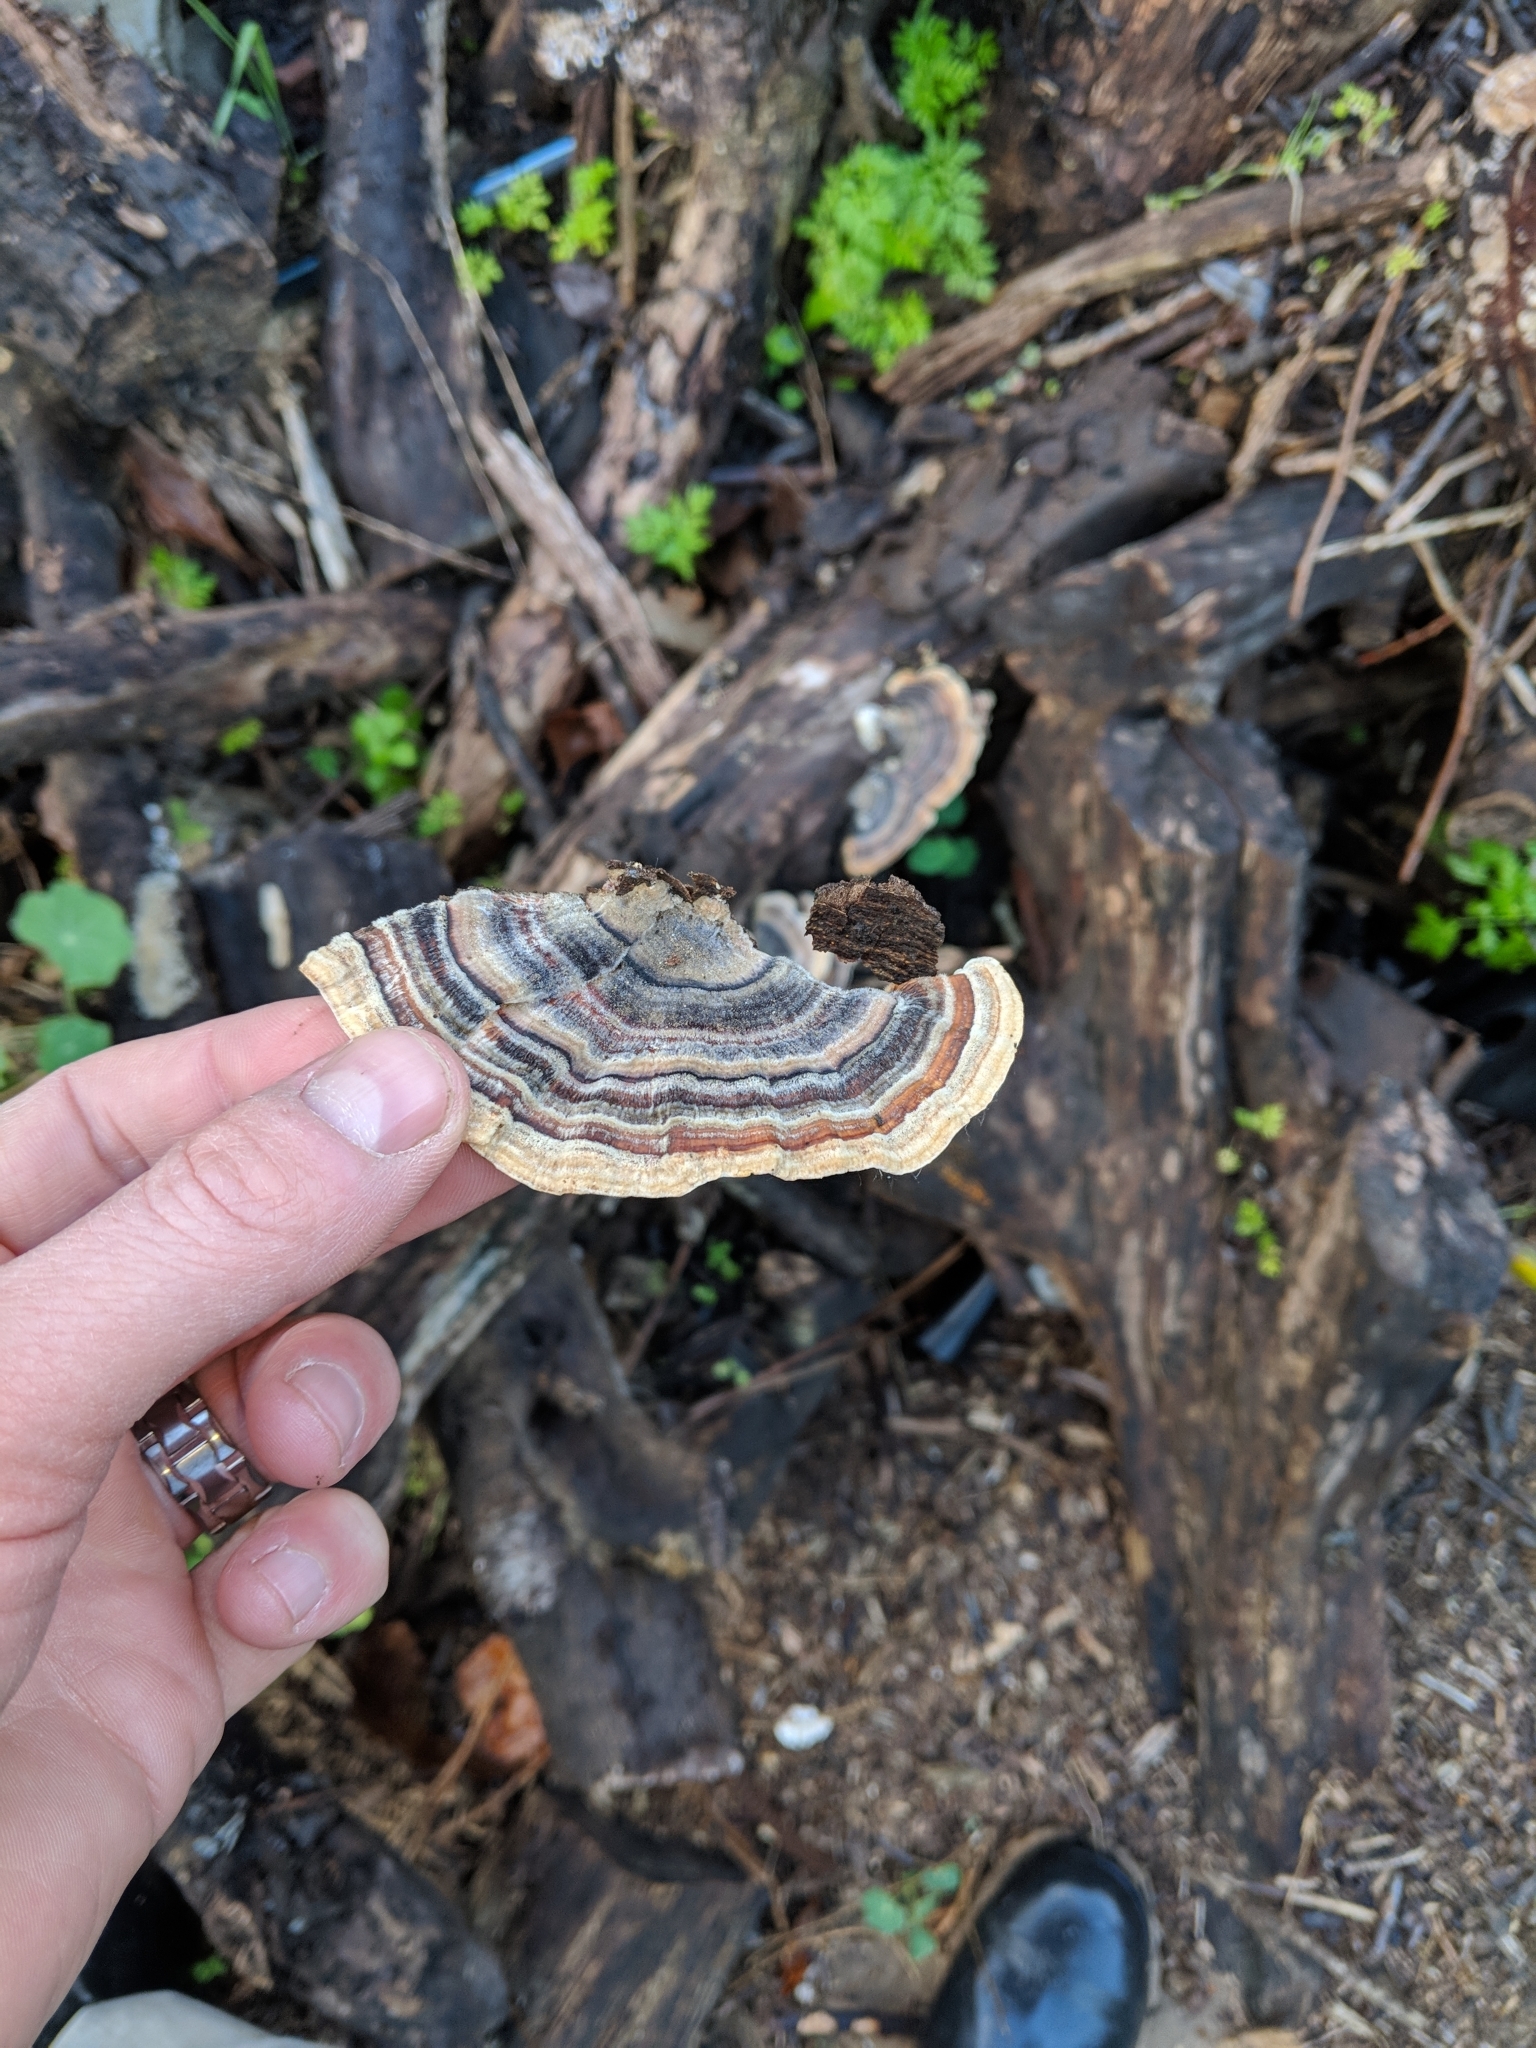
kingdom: Fungi
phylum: Basidiomycota
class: Agaricomycetes
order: Polyporales
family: Polyporaceae
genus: Trametes
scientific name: Trametes versicolor
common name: Turkeytail
